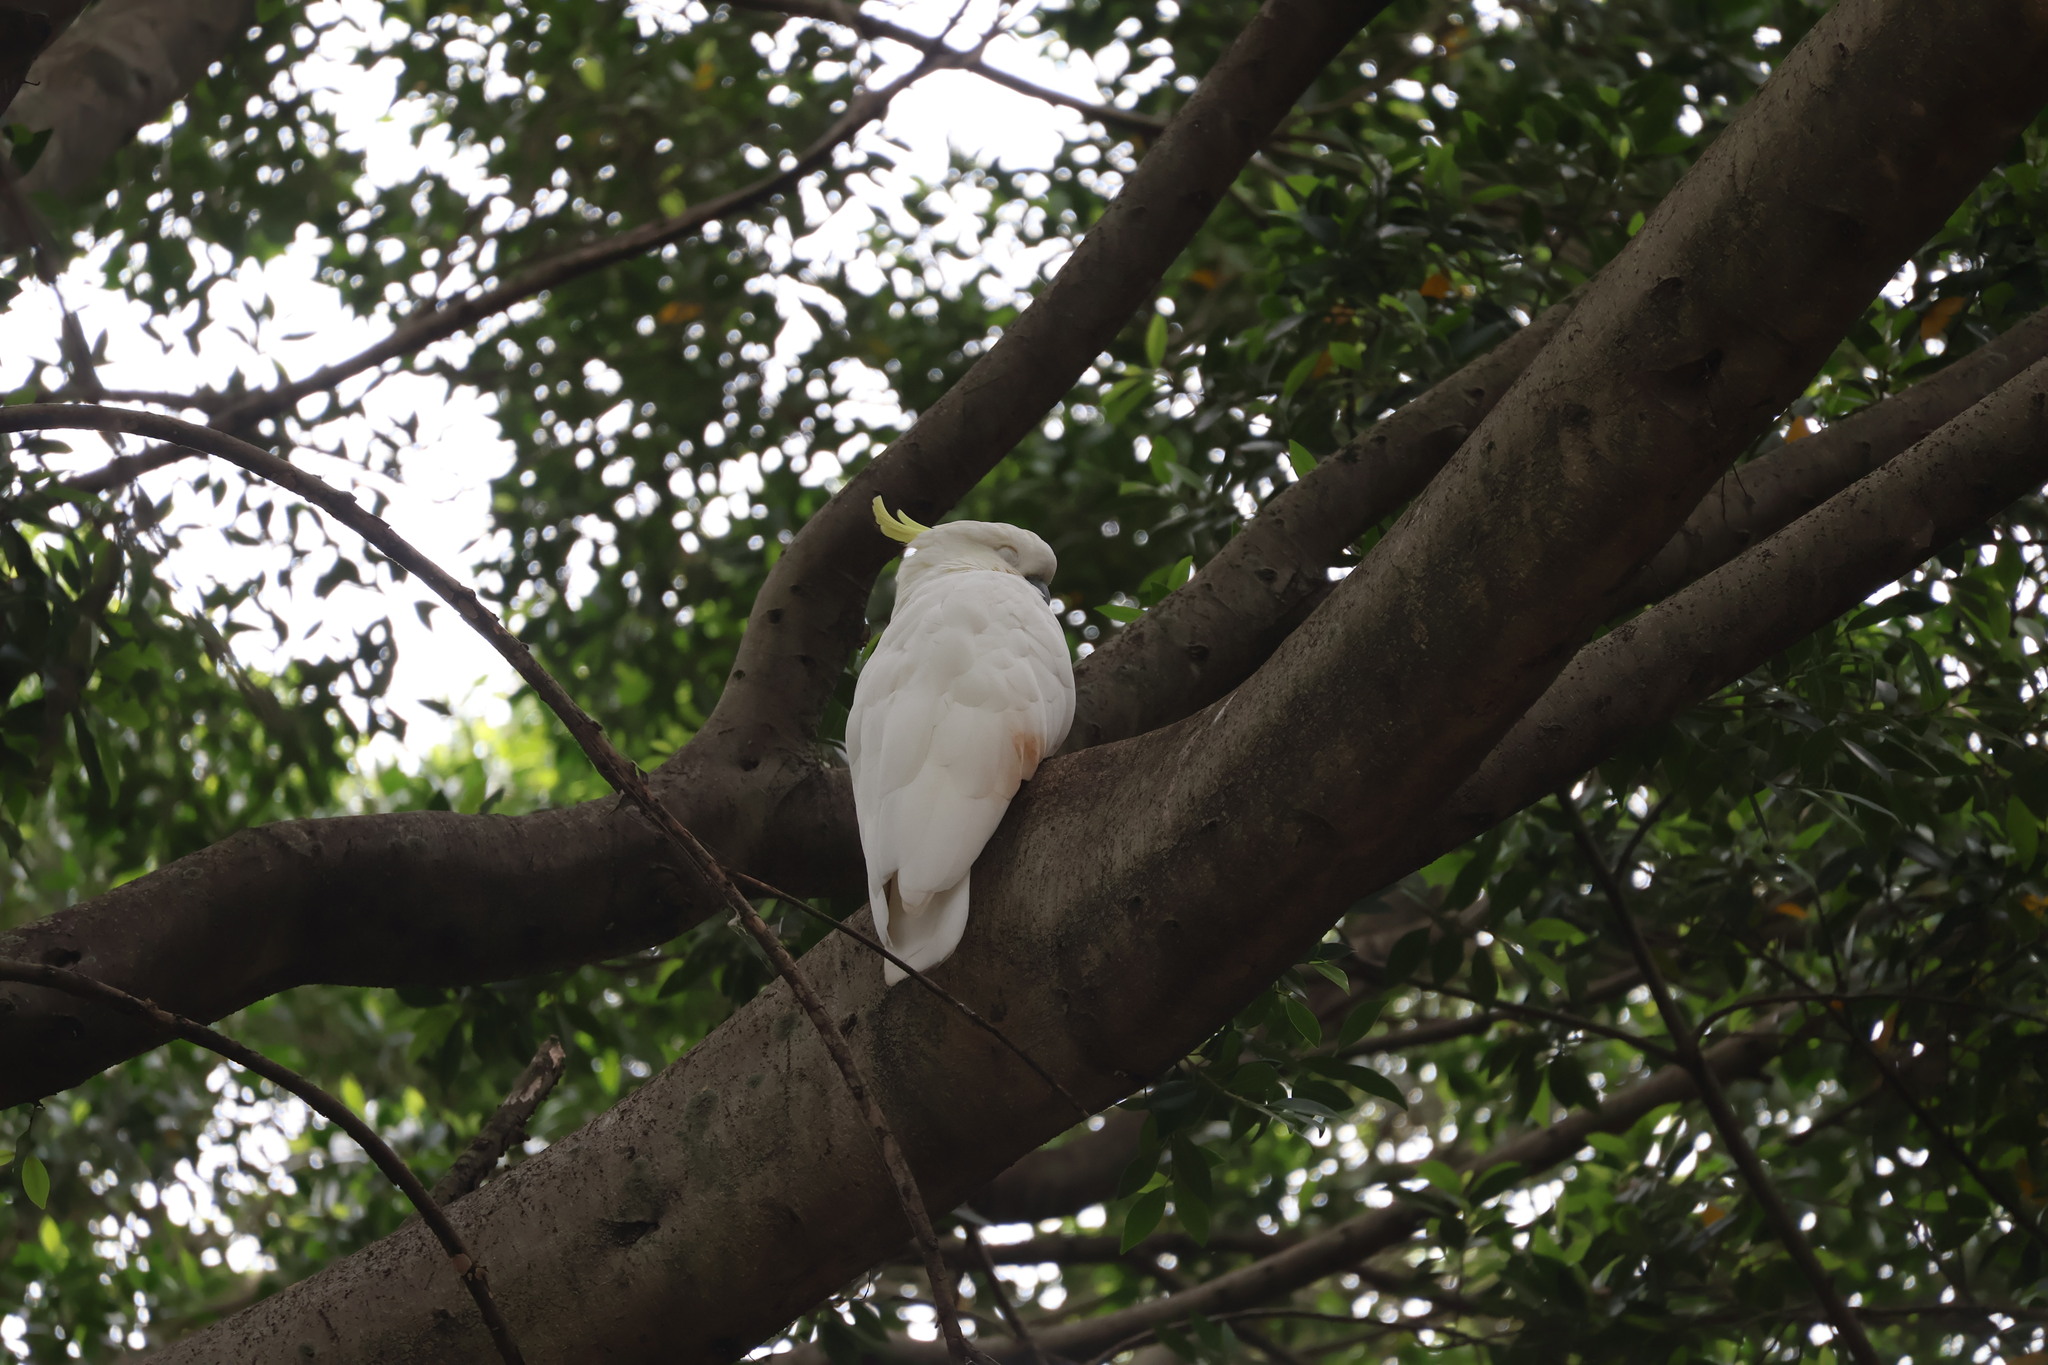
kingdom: Animalia
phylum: Chordata
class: Aves
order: Psittaciformes
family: Psittacidae
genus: Cacatua
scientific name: Cacatua galerita
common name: Sulphur-crested cockatoo
